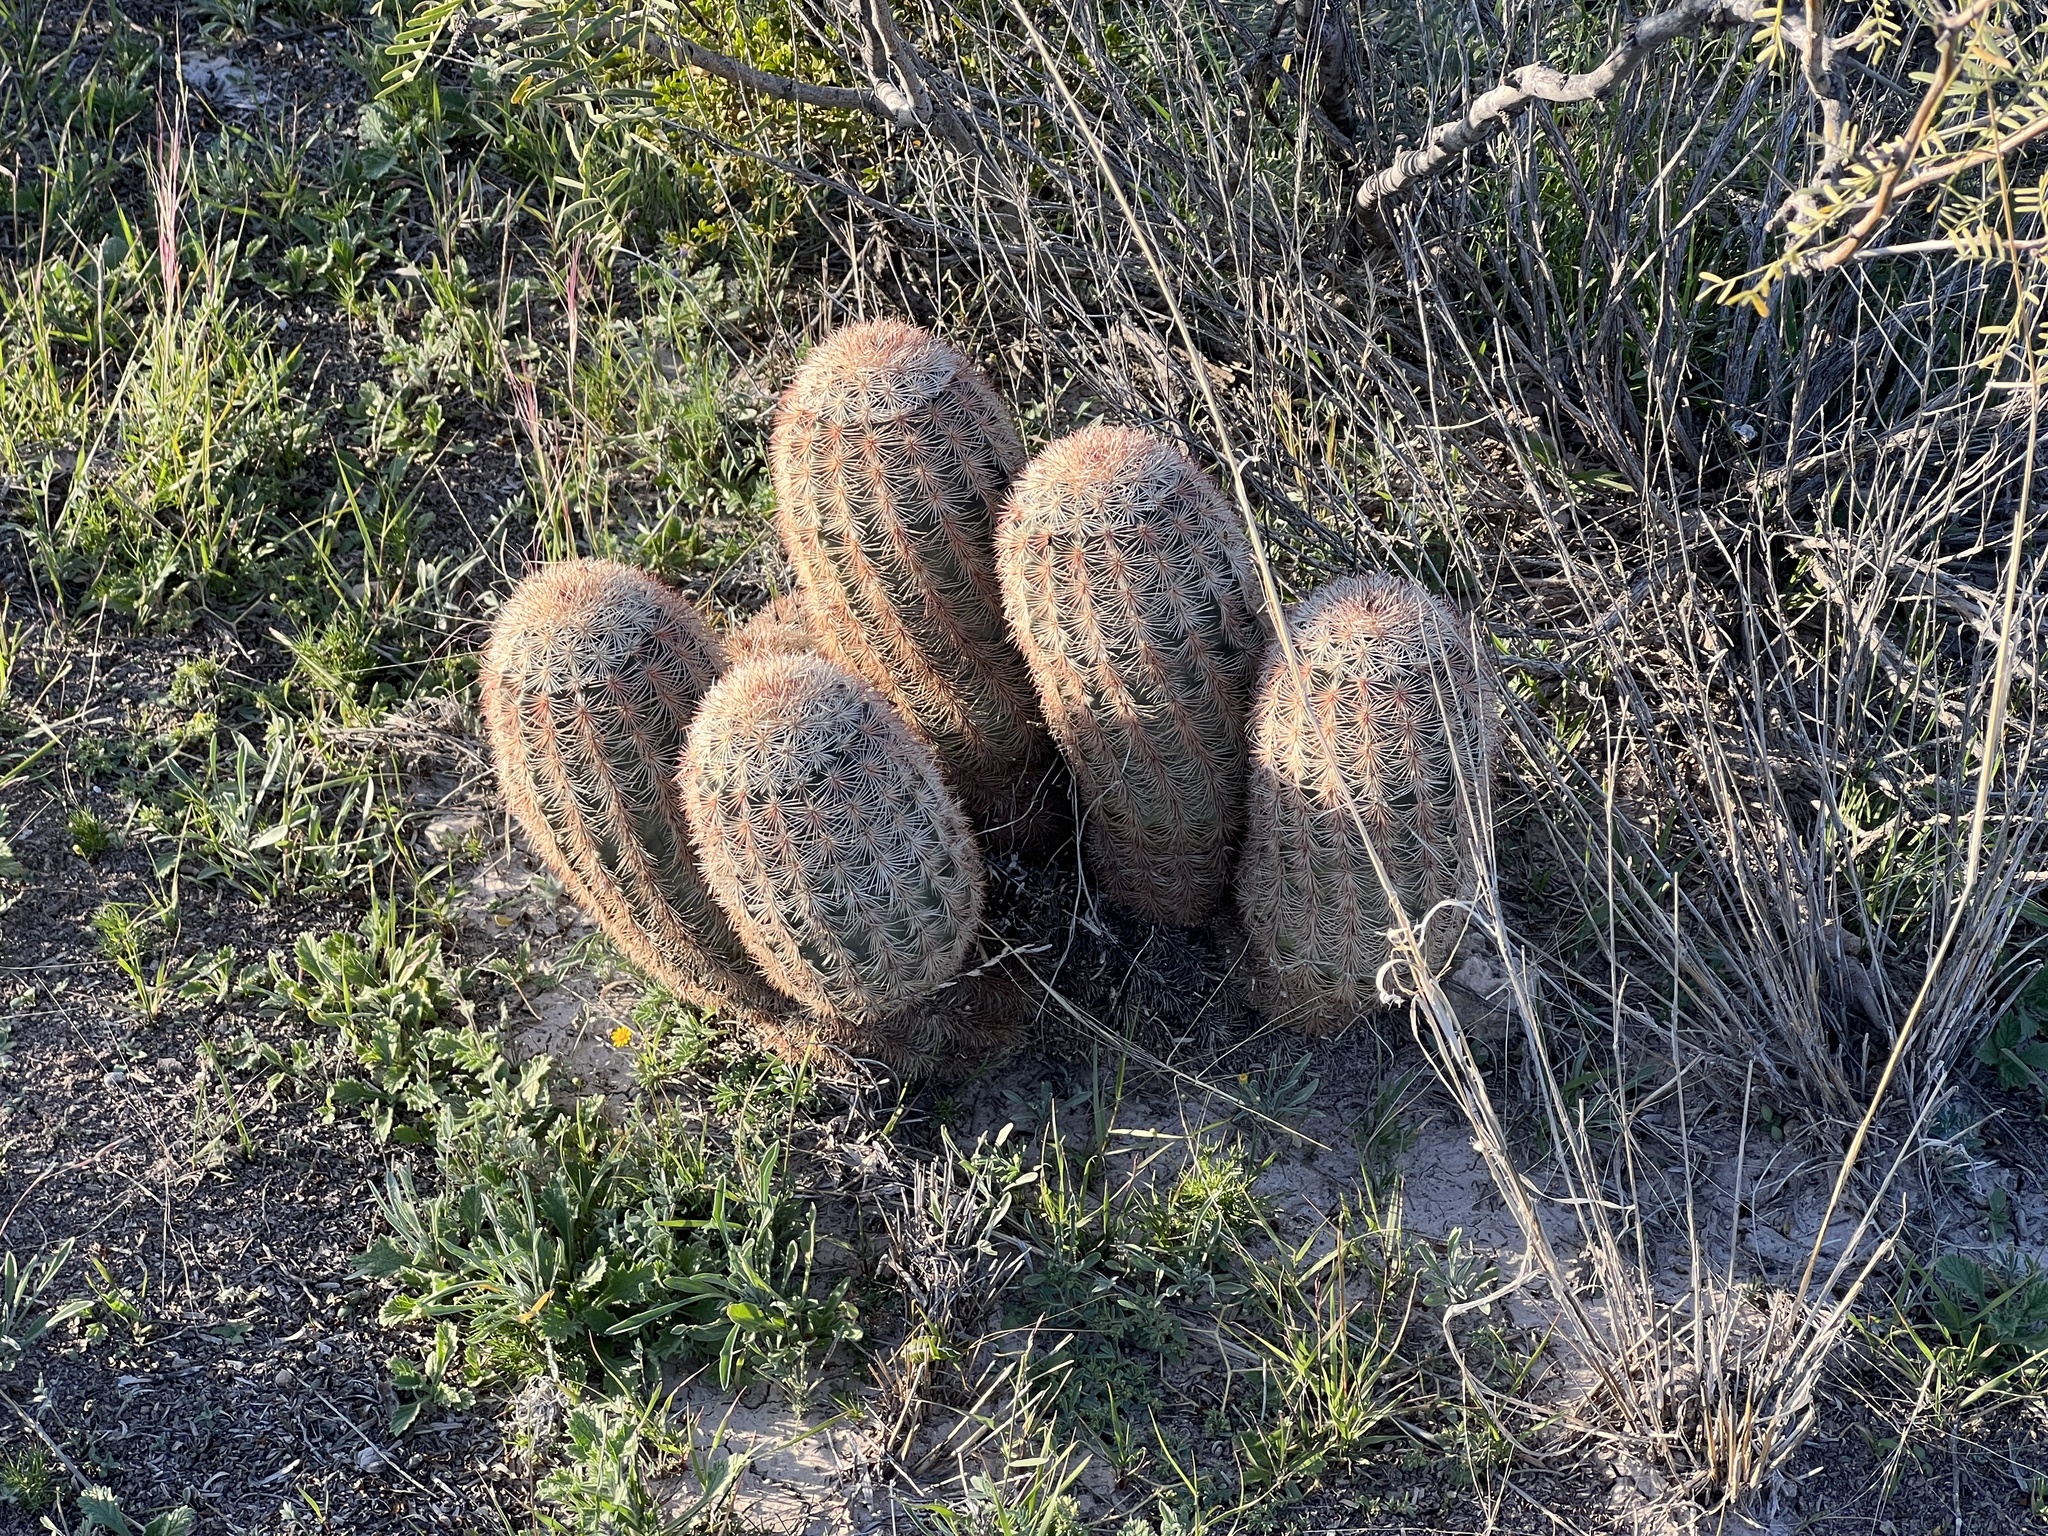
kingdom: Plantae
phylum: Tracheophyta
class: Magnoliopsida
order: Caryophyllales
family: Cactaceae
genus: Echinocereus
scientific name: Echinocereus dasyacanthus
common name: Spiny hedgehog cactus
